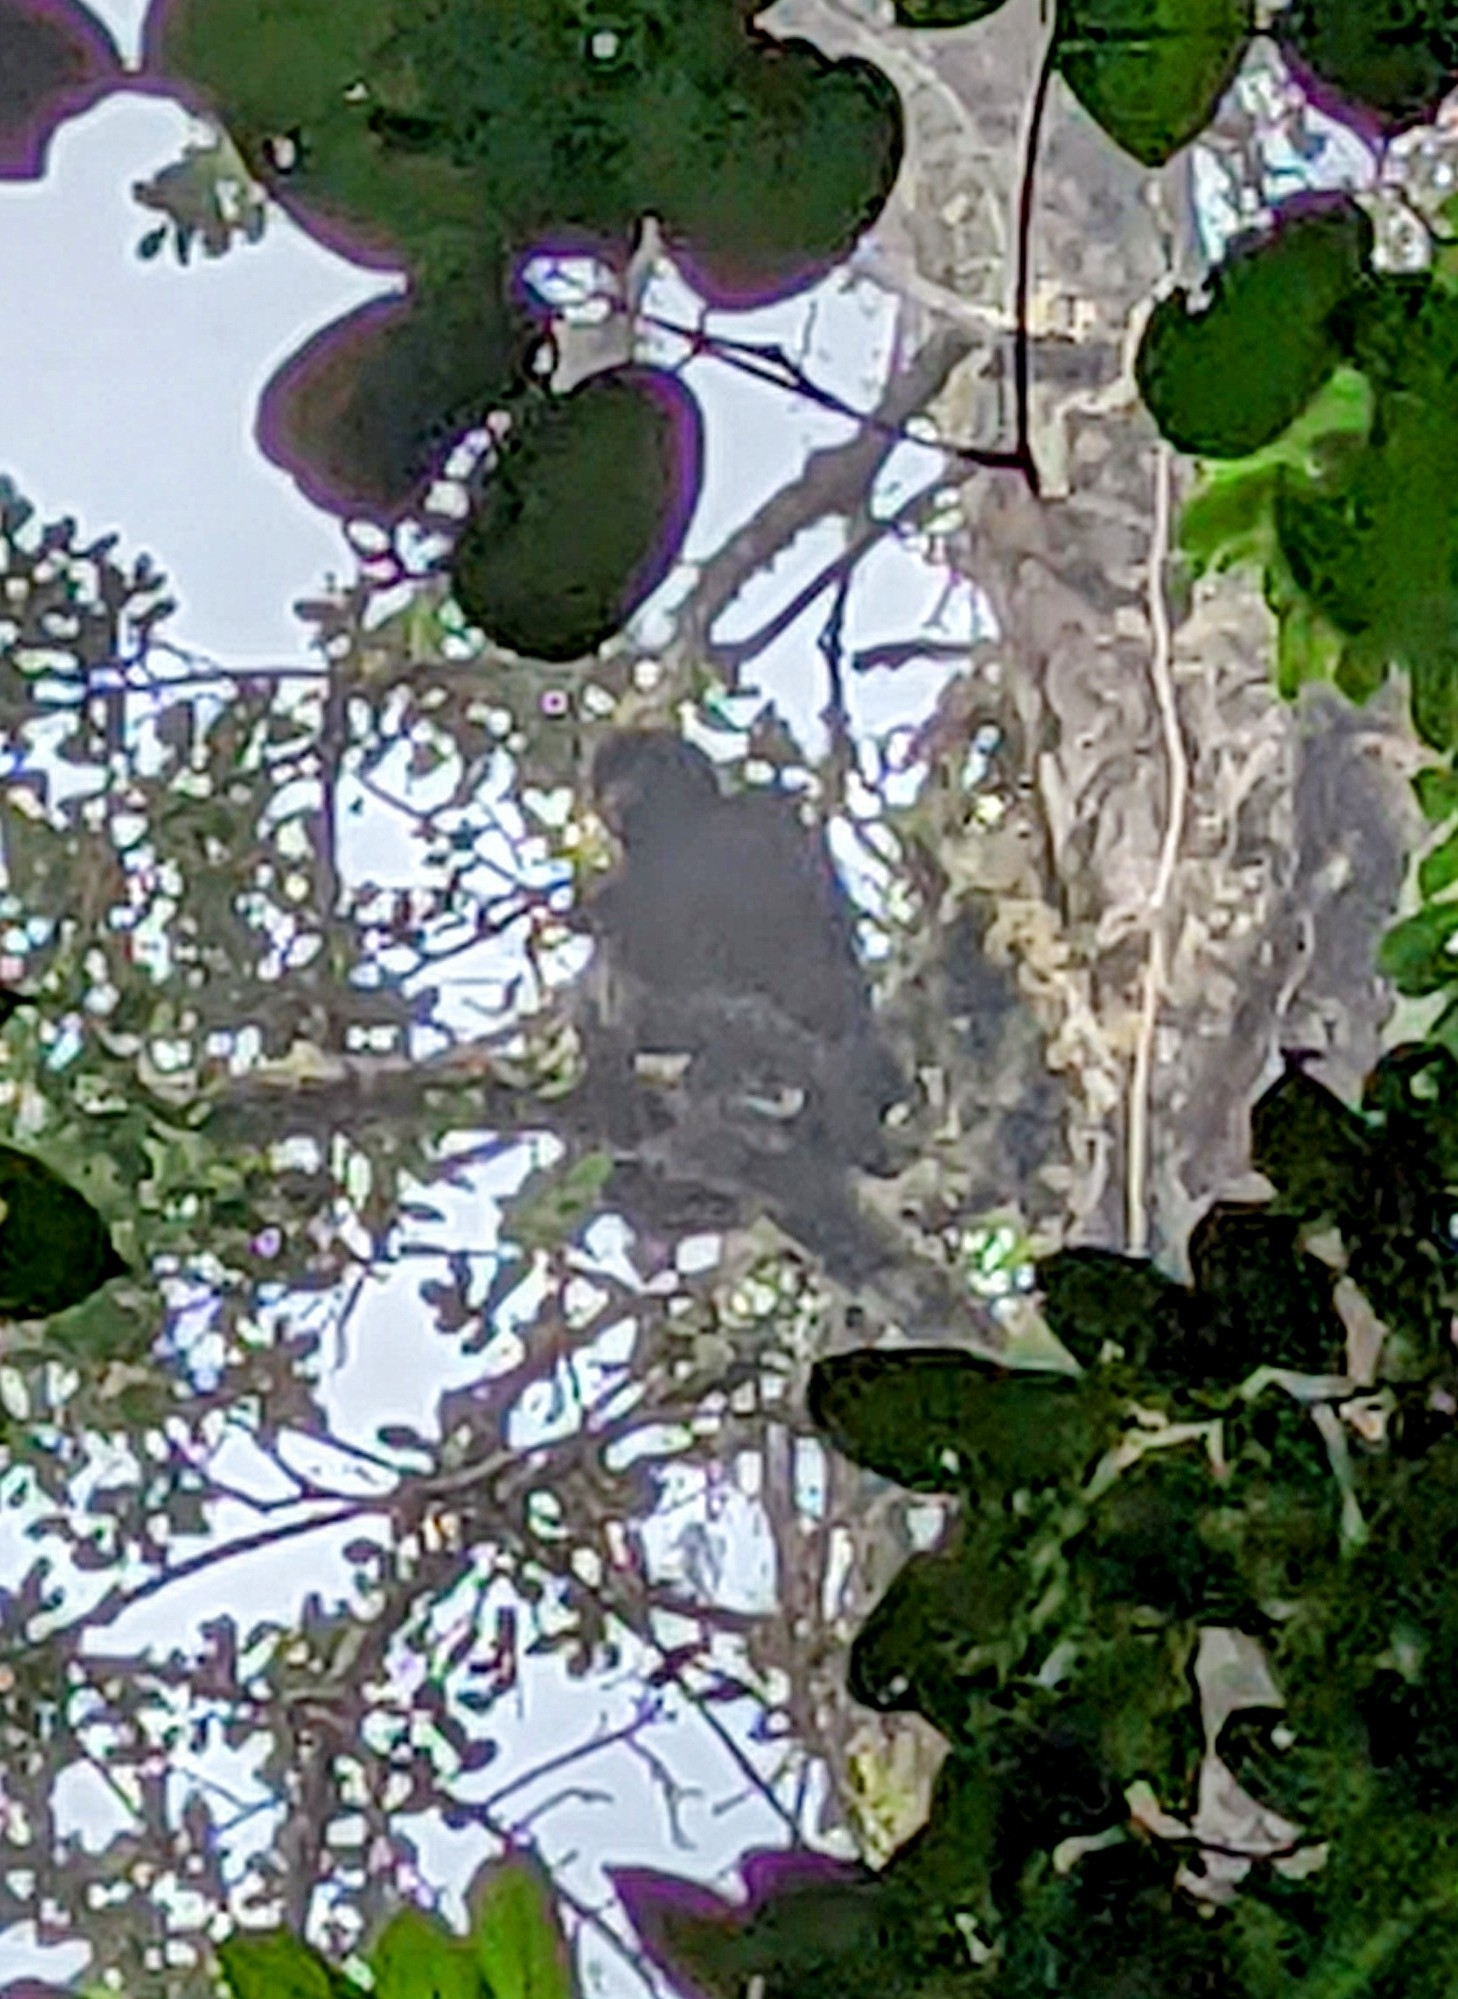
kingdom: Animalia
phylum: Chordata
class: Mammalia
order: Primates
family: Atelidae
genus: Ateles
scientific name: Ateles fusciceps
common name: Black-headed spider monkey
